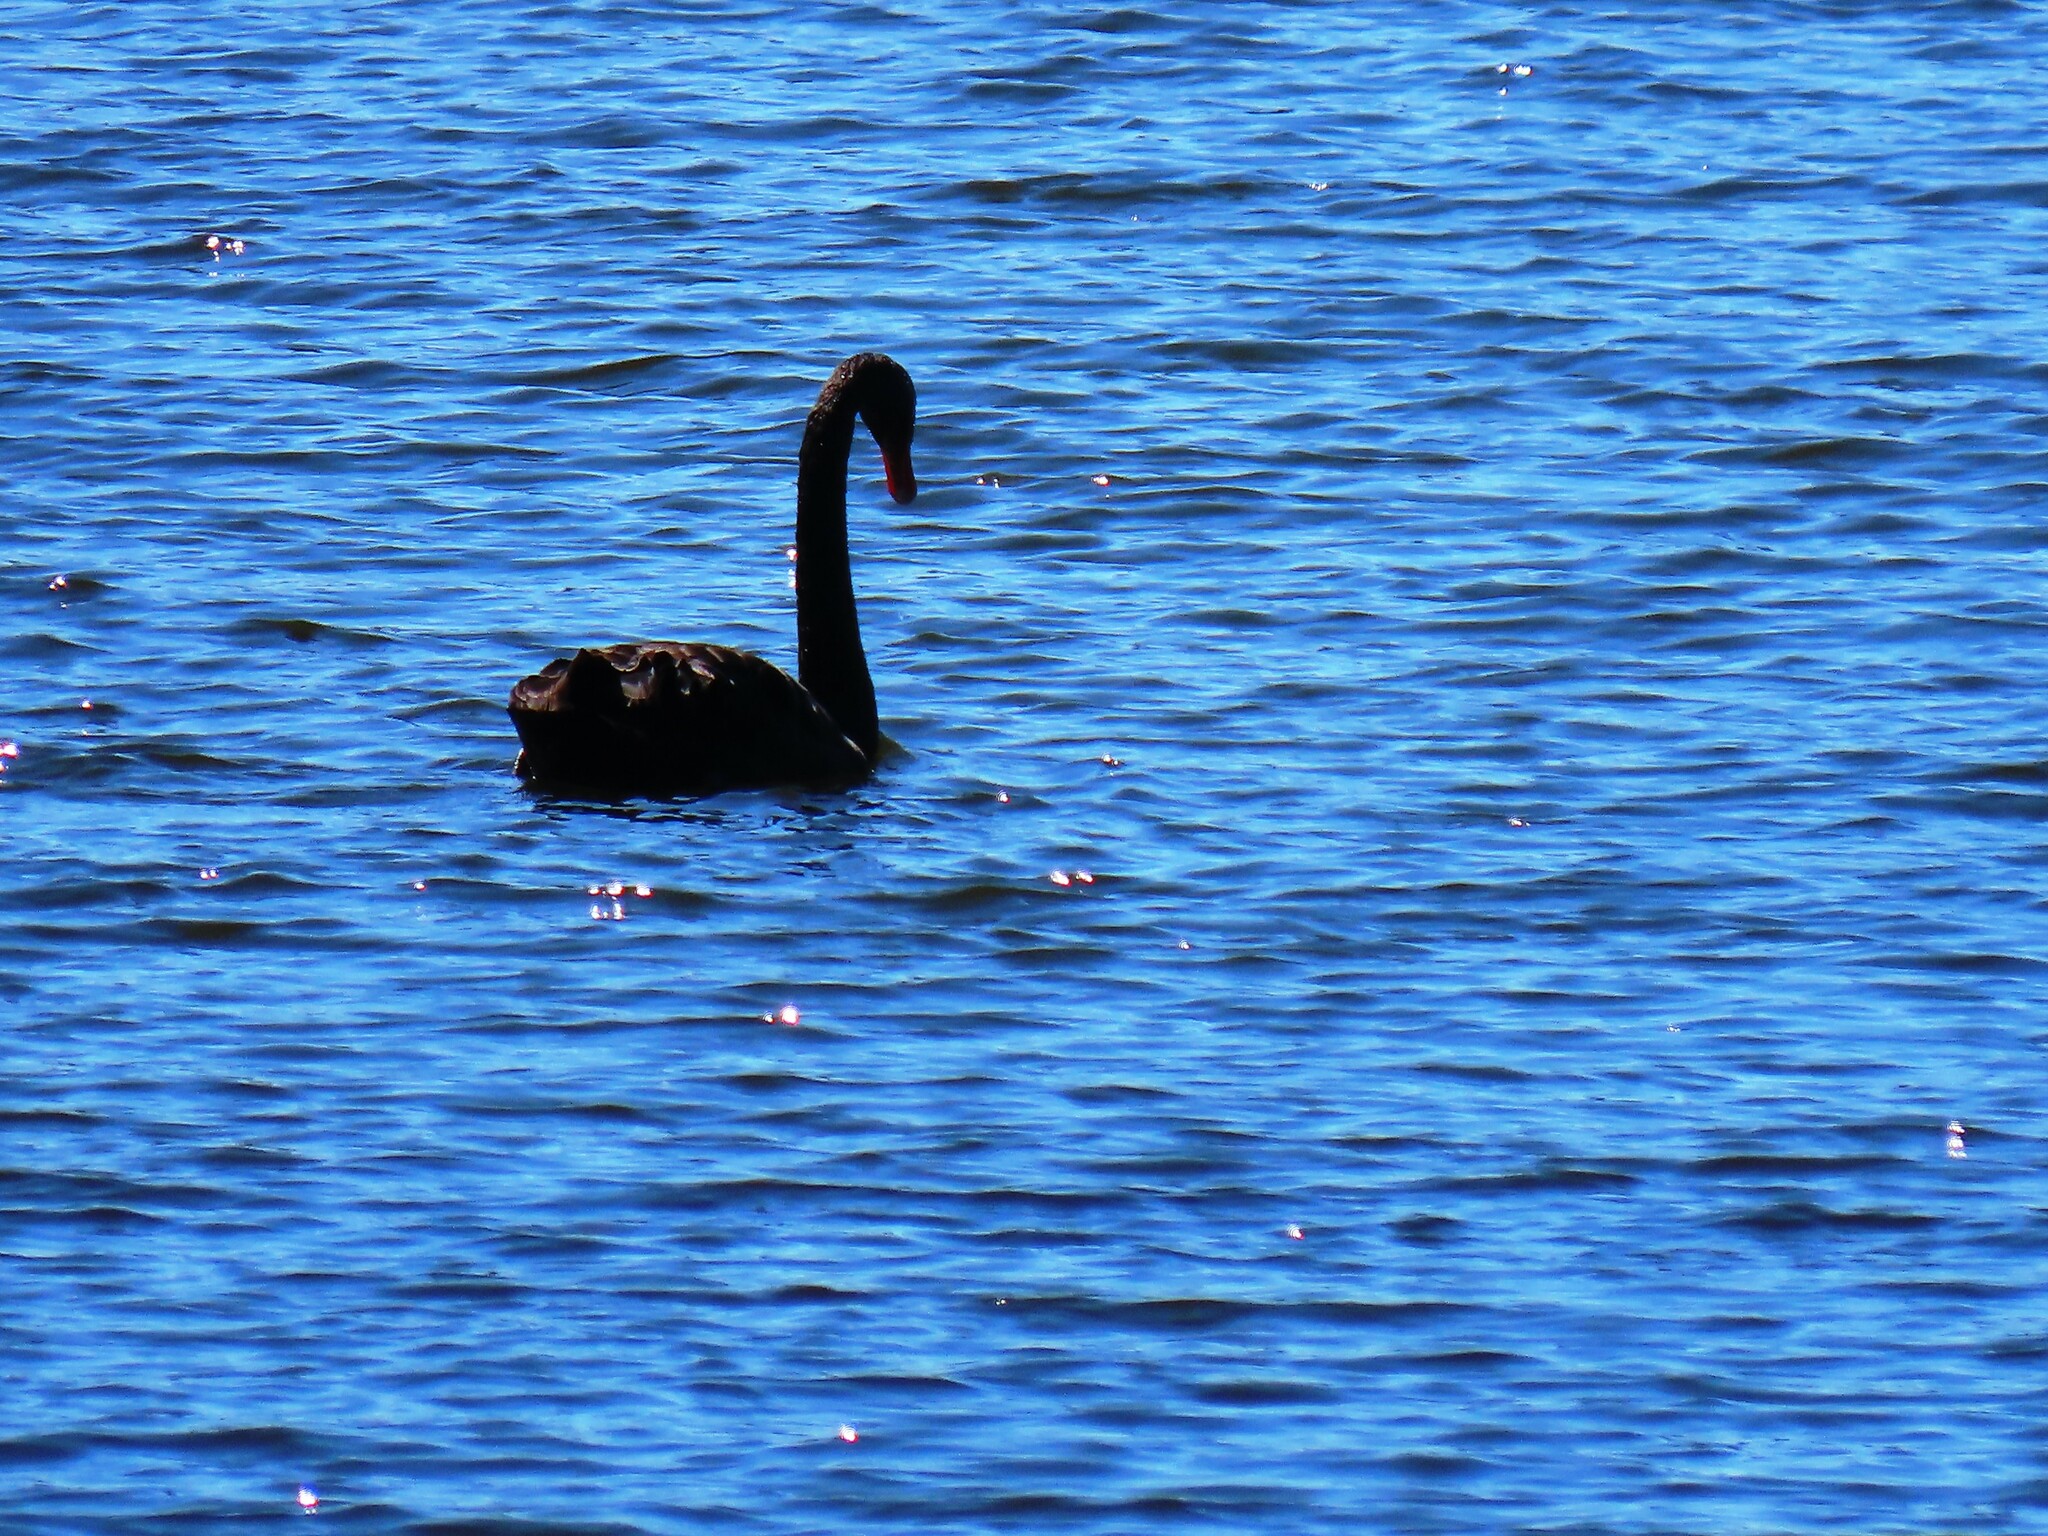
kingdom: Animalia
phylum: Chordata
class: Aves
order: Anseriformes
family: Anatidae
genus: Cygnus
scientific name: Cygnus atratus
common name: Black swan
